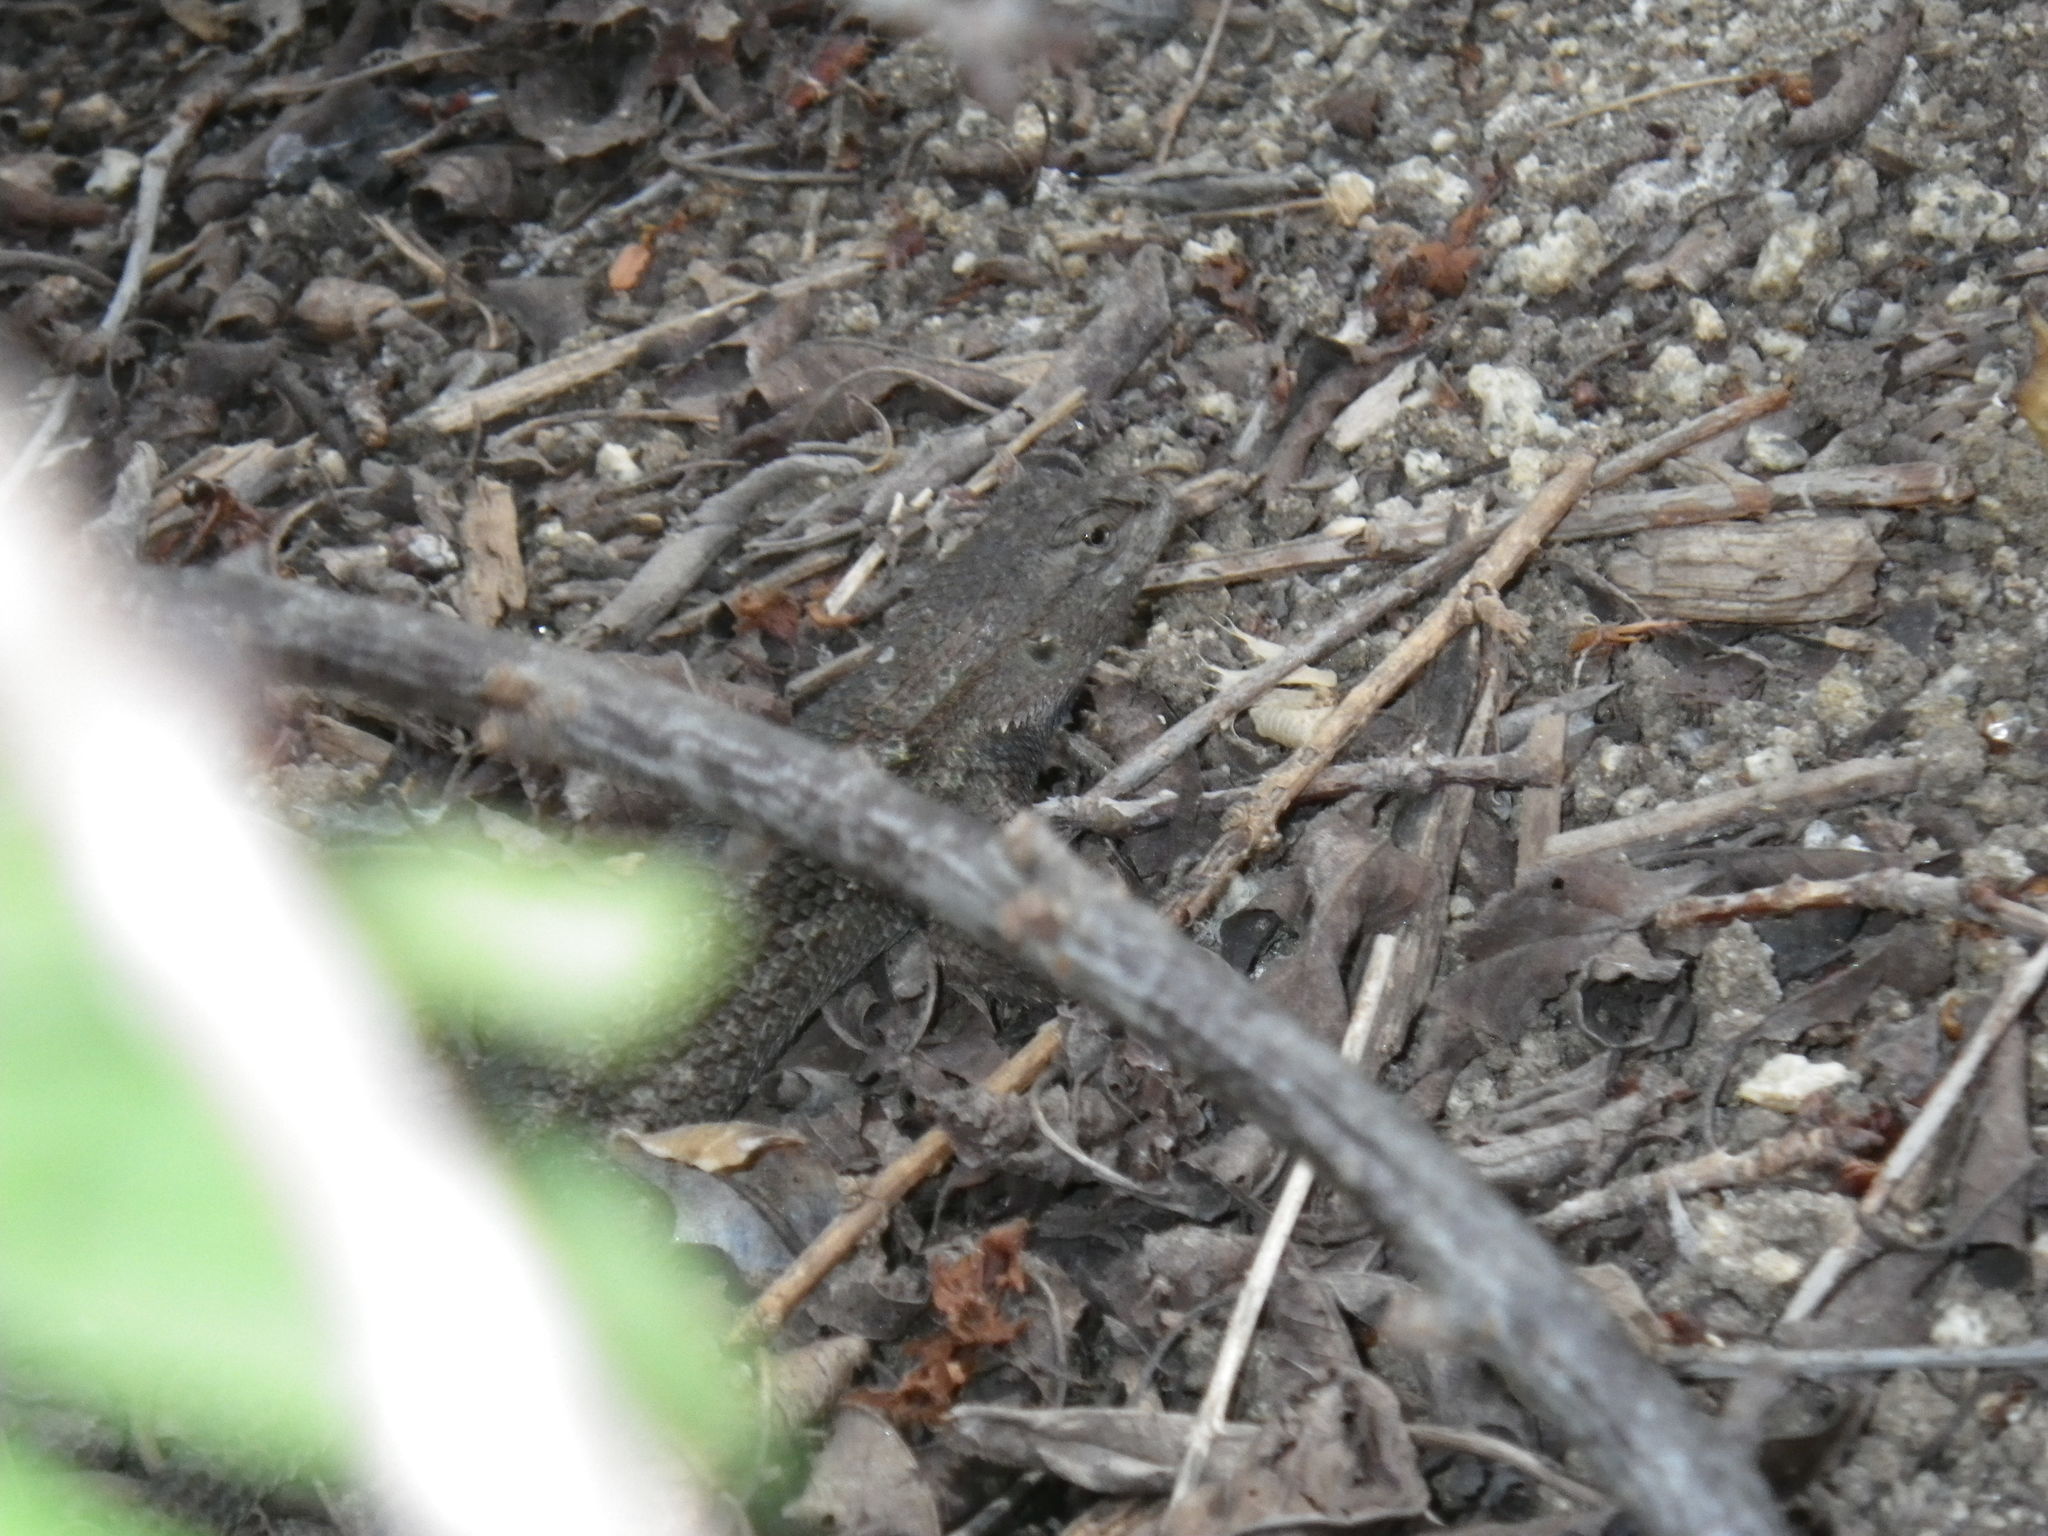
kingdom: Animalia
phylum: Chordata
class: Squamata
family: Phrynosomatidae
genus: Sceloporus
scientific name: Sceloporus occidentalis
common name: Western fence lizard
